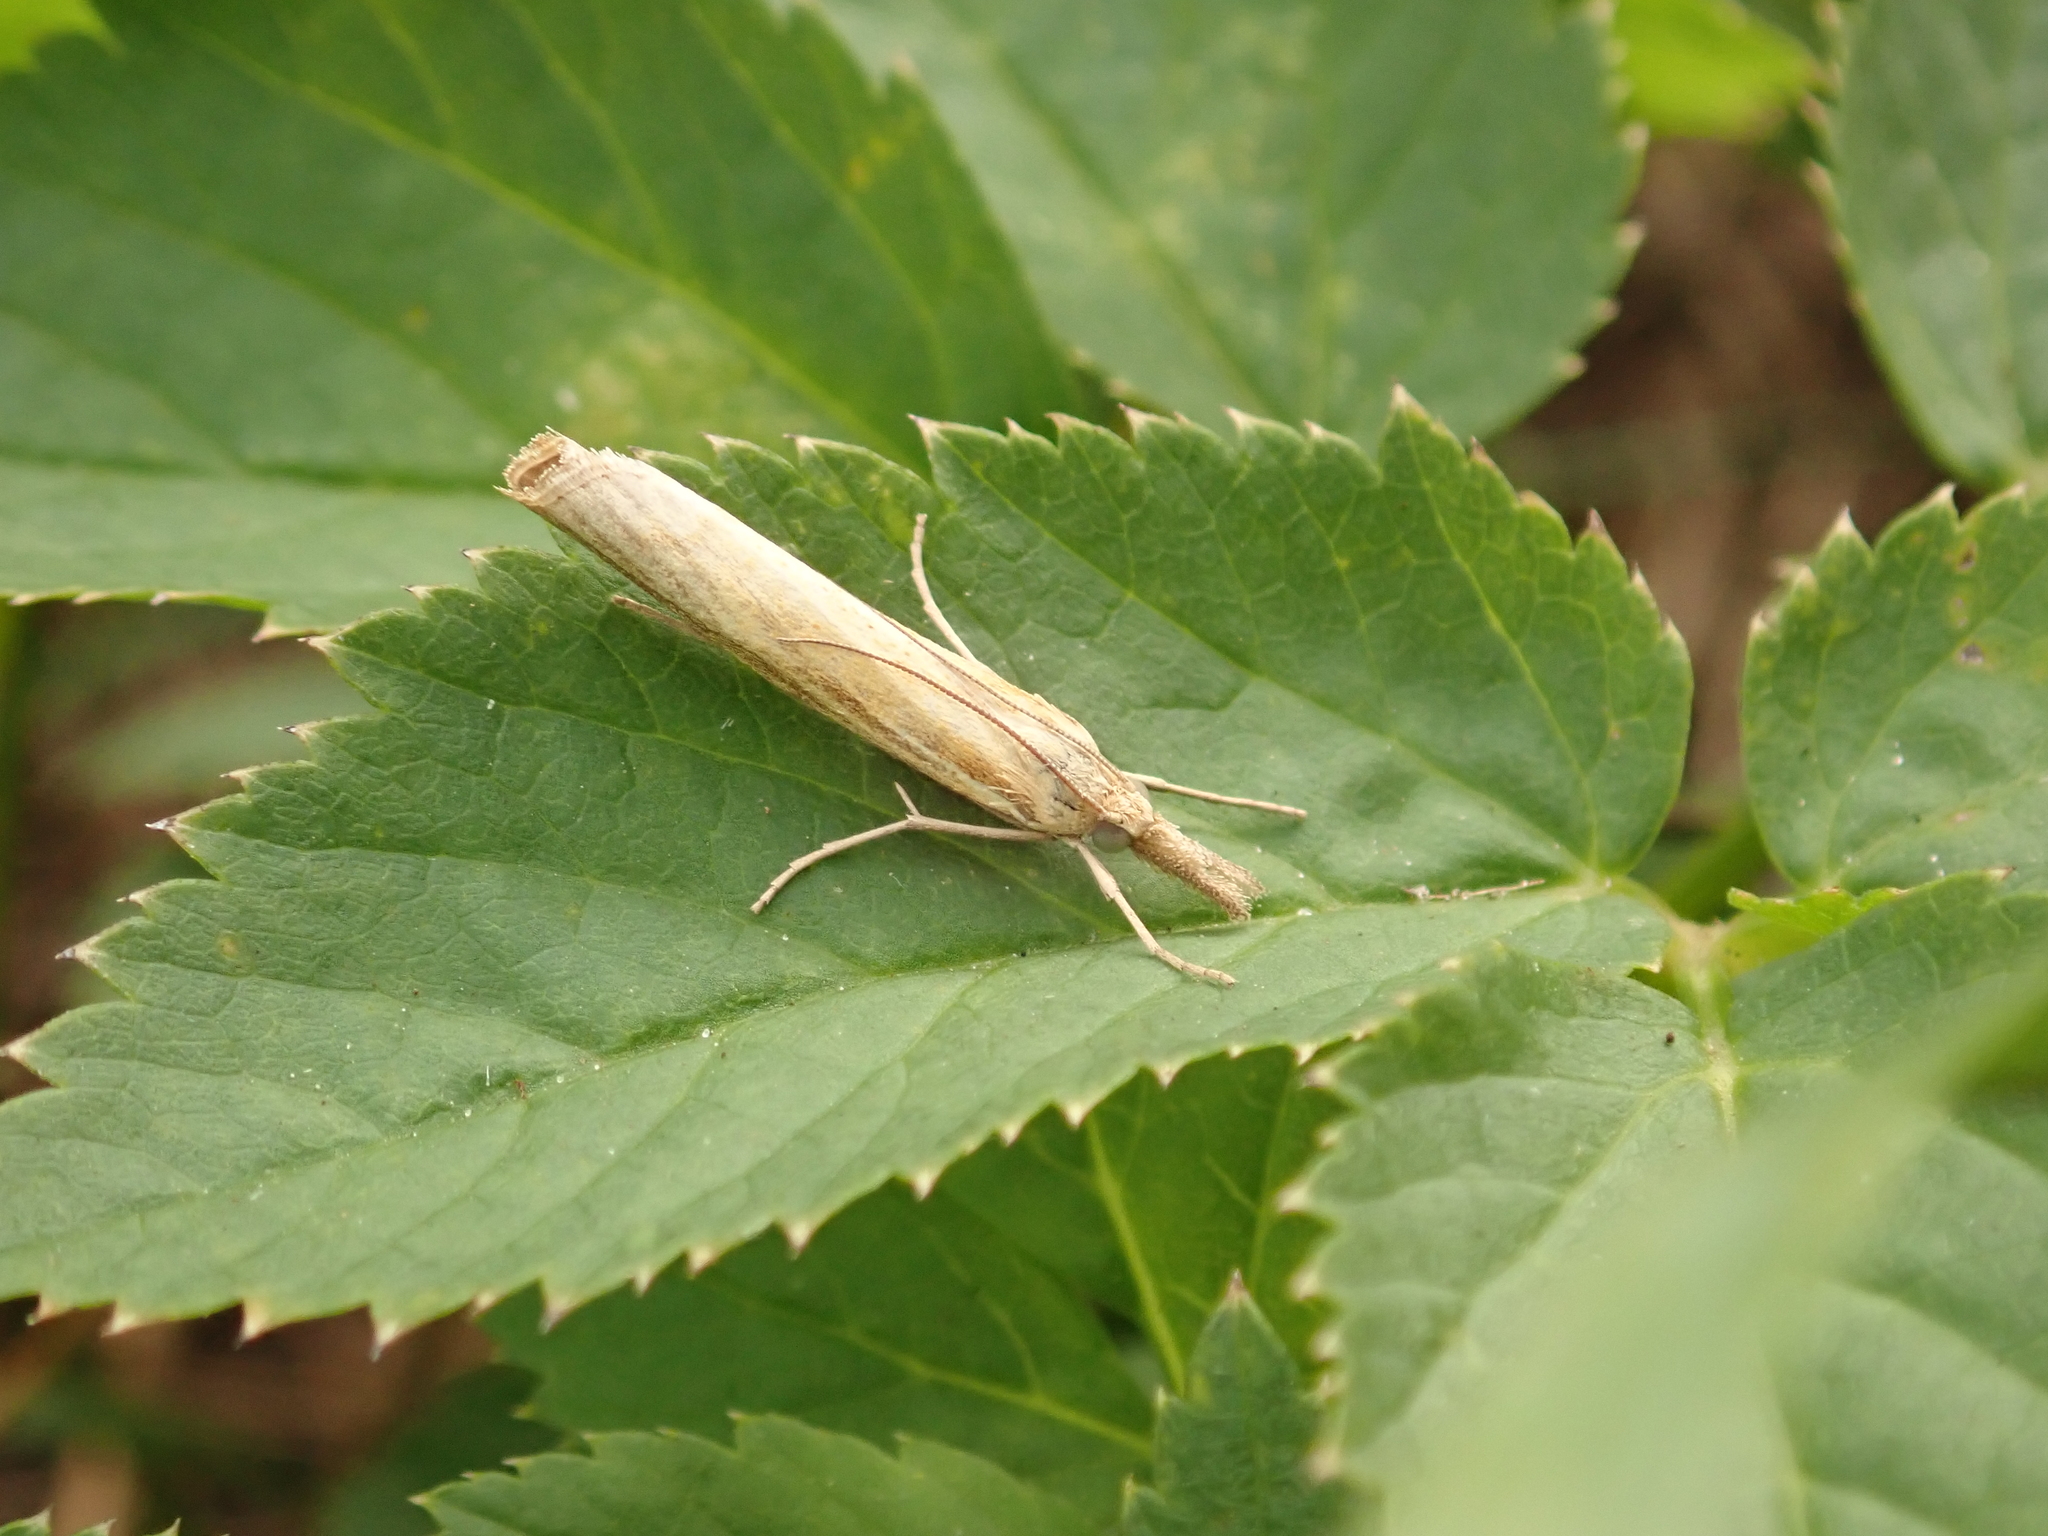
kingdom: Animalia
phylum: Arthropoda
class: Insecta
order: Lepidoptera
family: Crambidae
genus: Agriphila
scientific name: Agriphila tristellus
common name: Common grass-veneer
